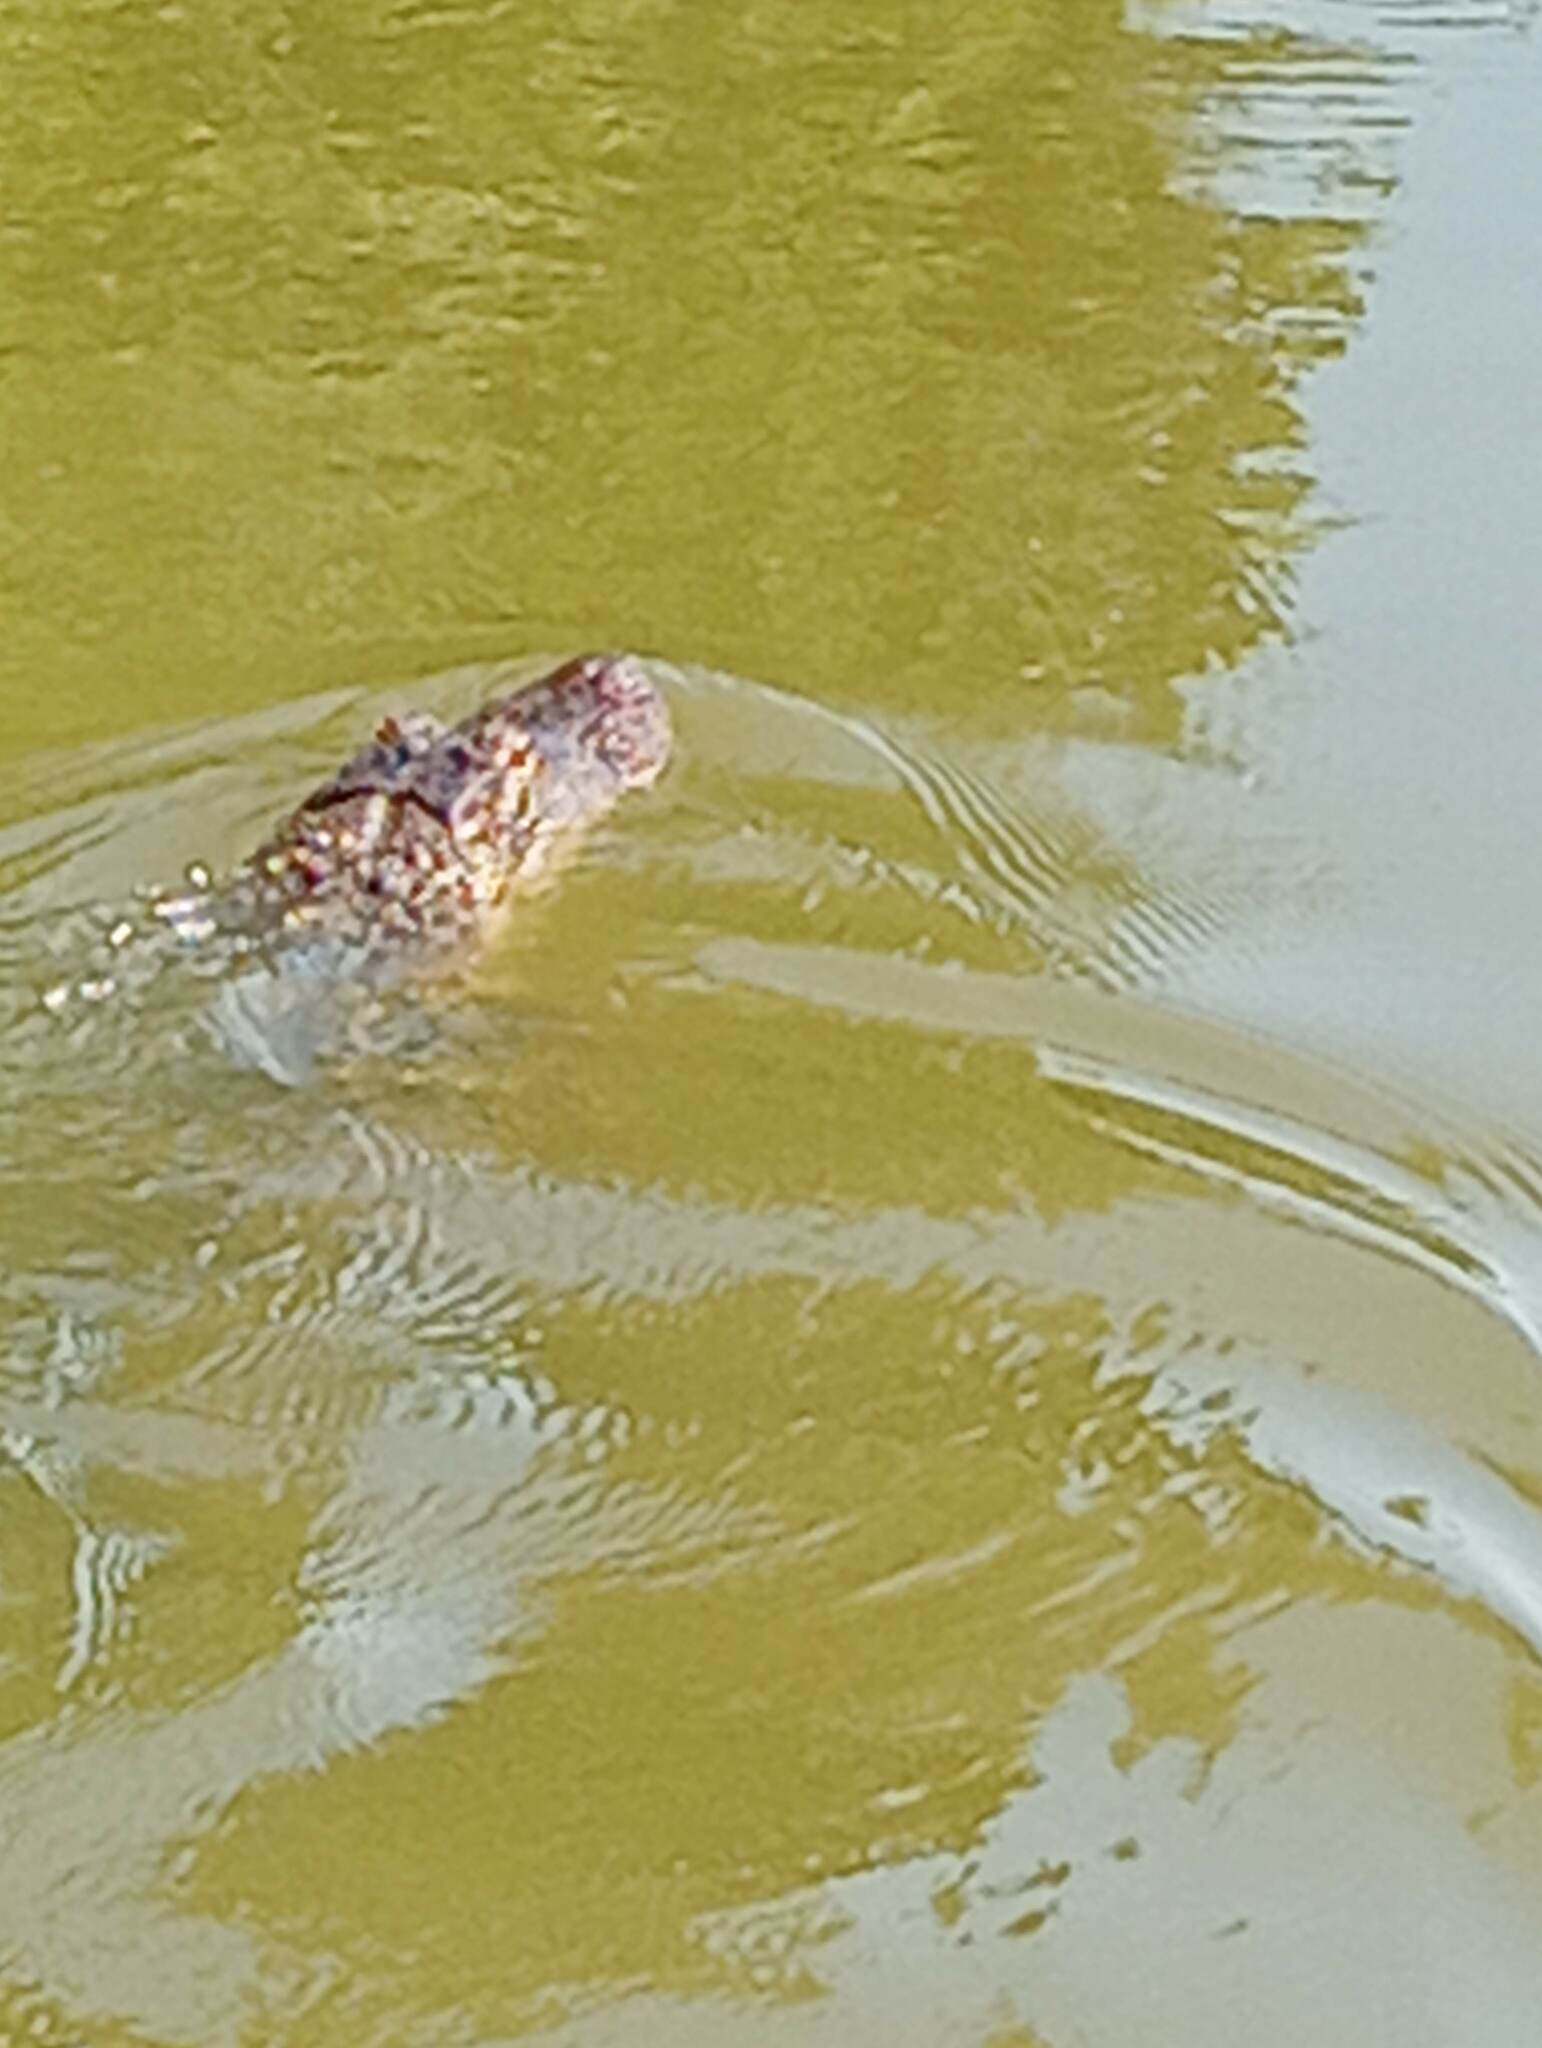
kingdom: Animalia
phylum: Chordata
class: Crocodylia
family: Alligatoridae
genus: Alligator
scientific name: Alligator mississippiensis
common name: American alligator
